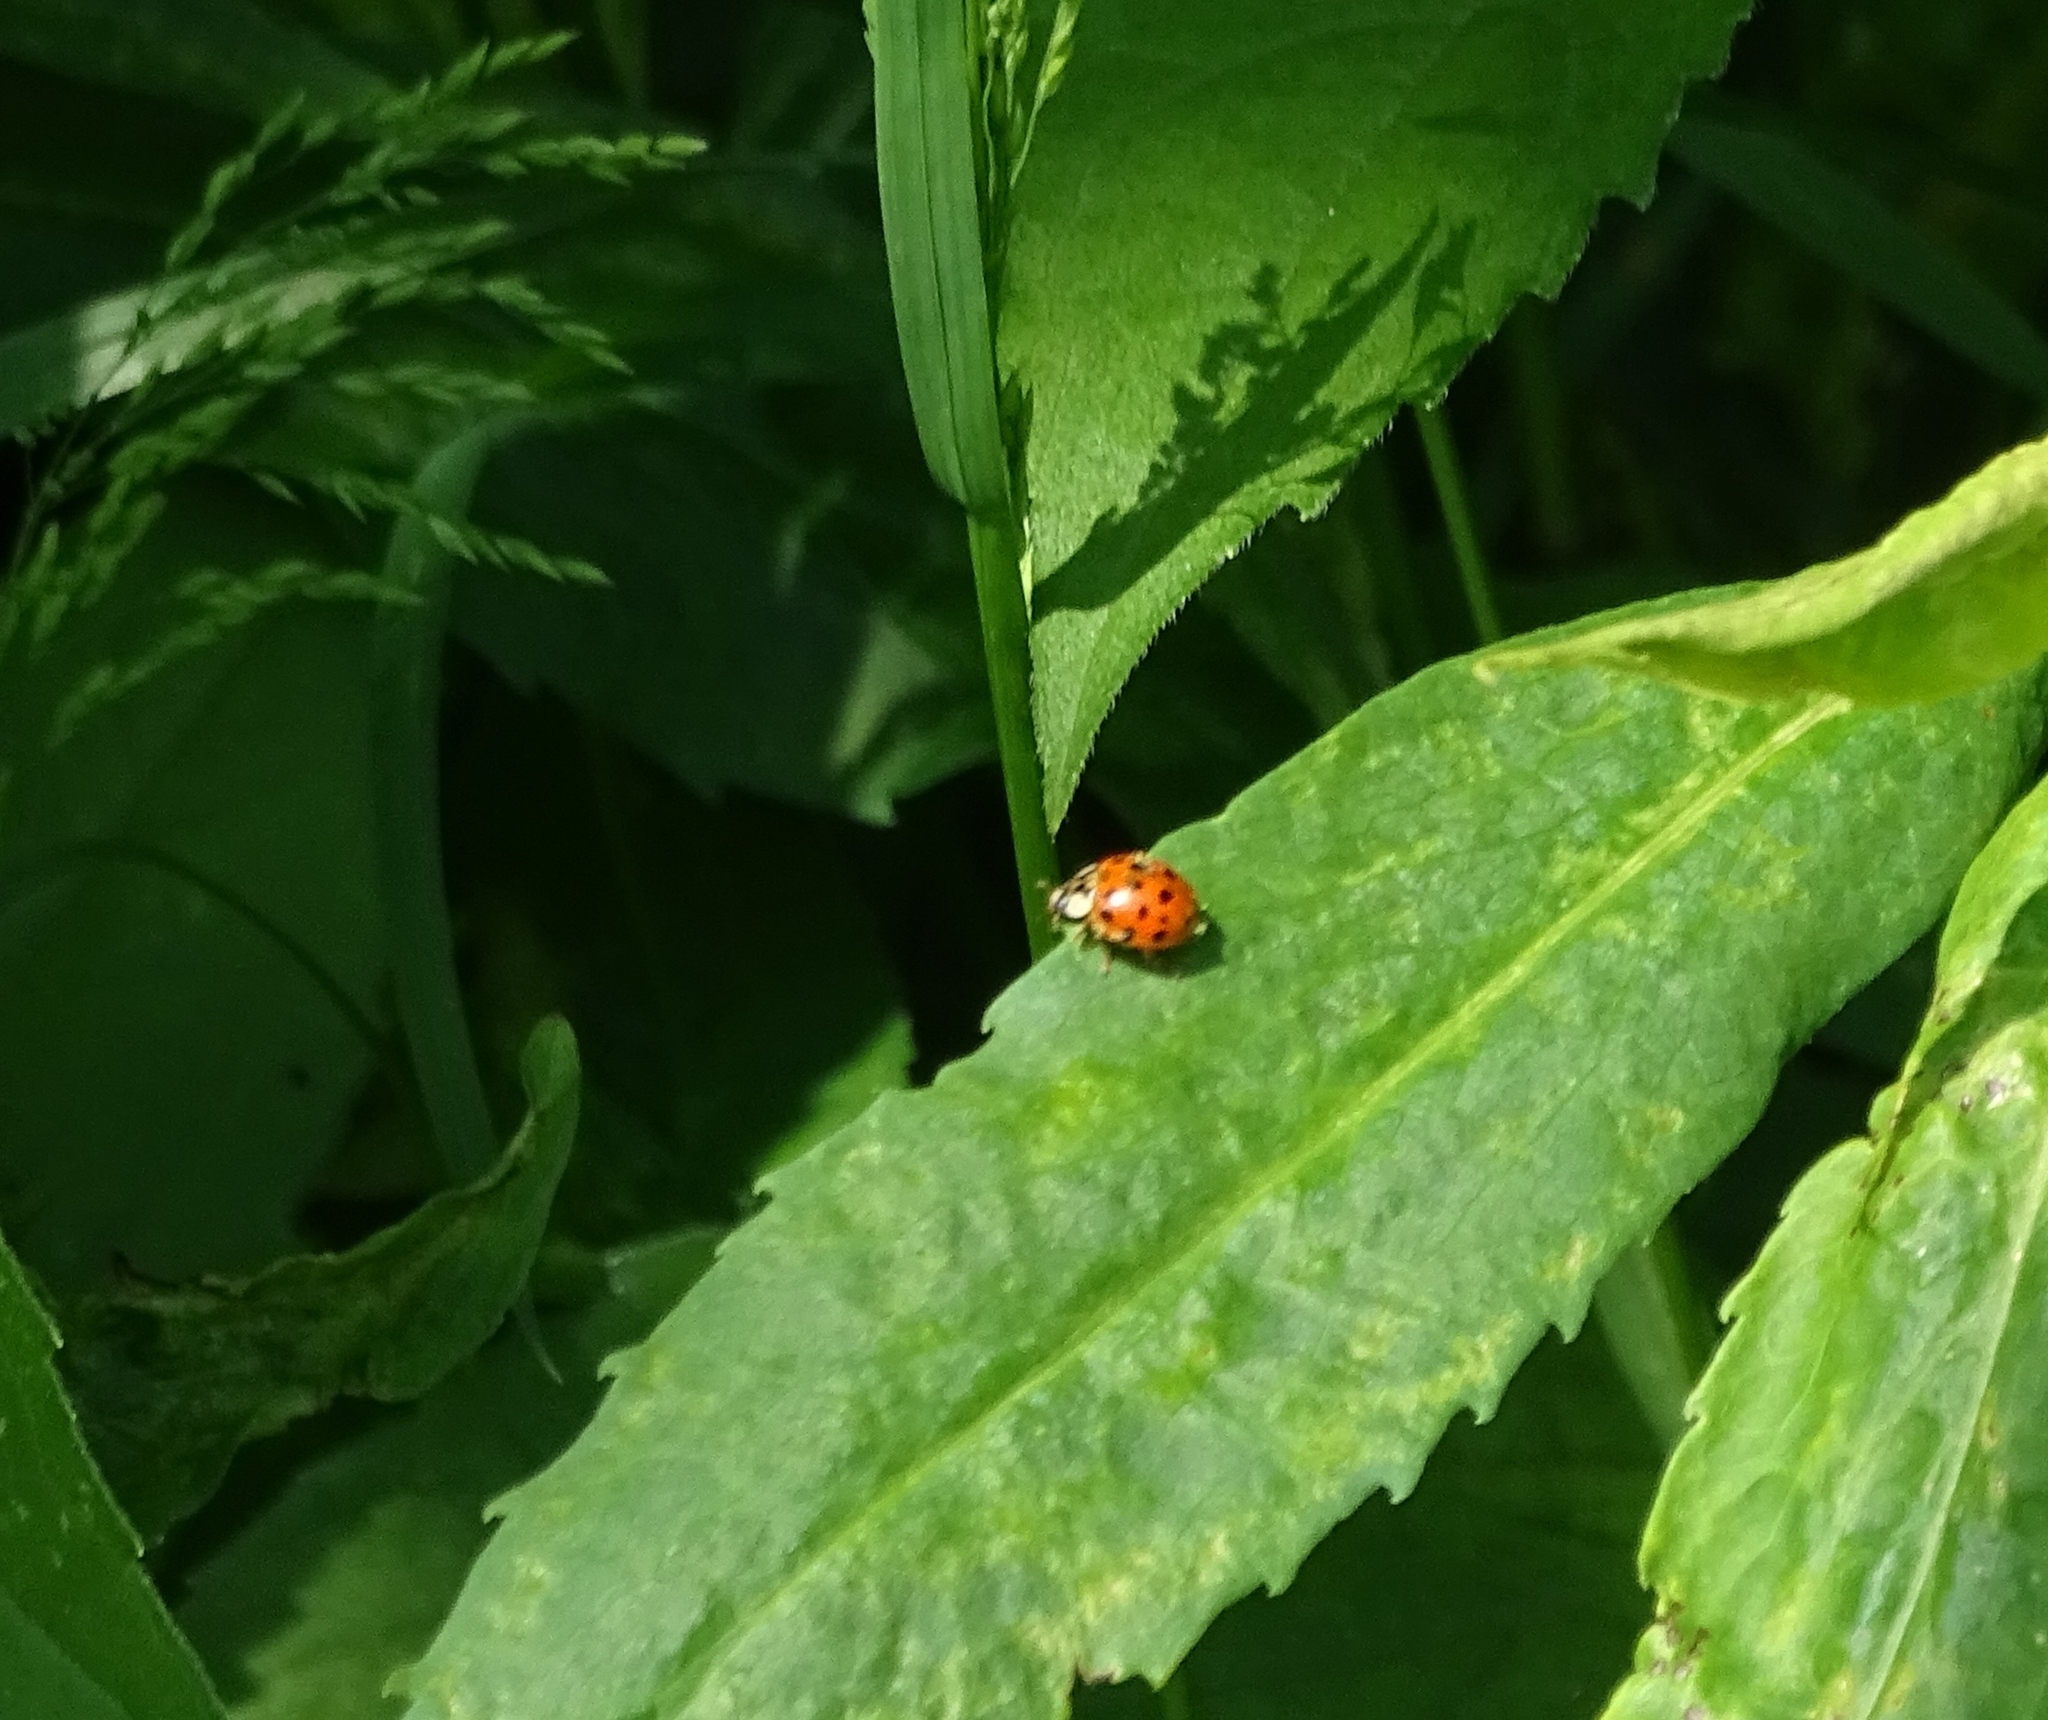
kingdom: Animalia
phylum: Arthropoda
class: Insecta
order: Coleoptera
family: Coccinellidae
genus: Harmonia
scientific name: Harmonia axyridis
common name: Harlequin ladybird
